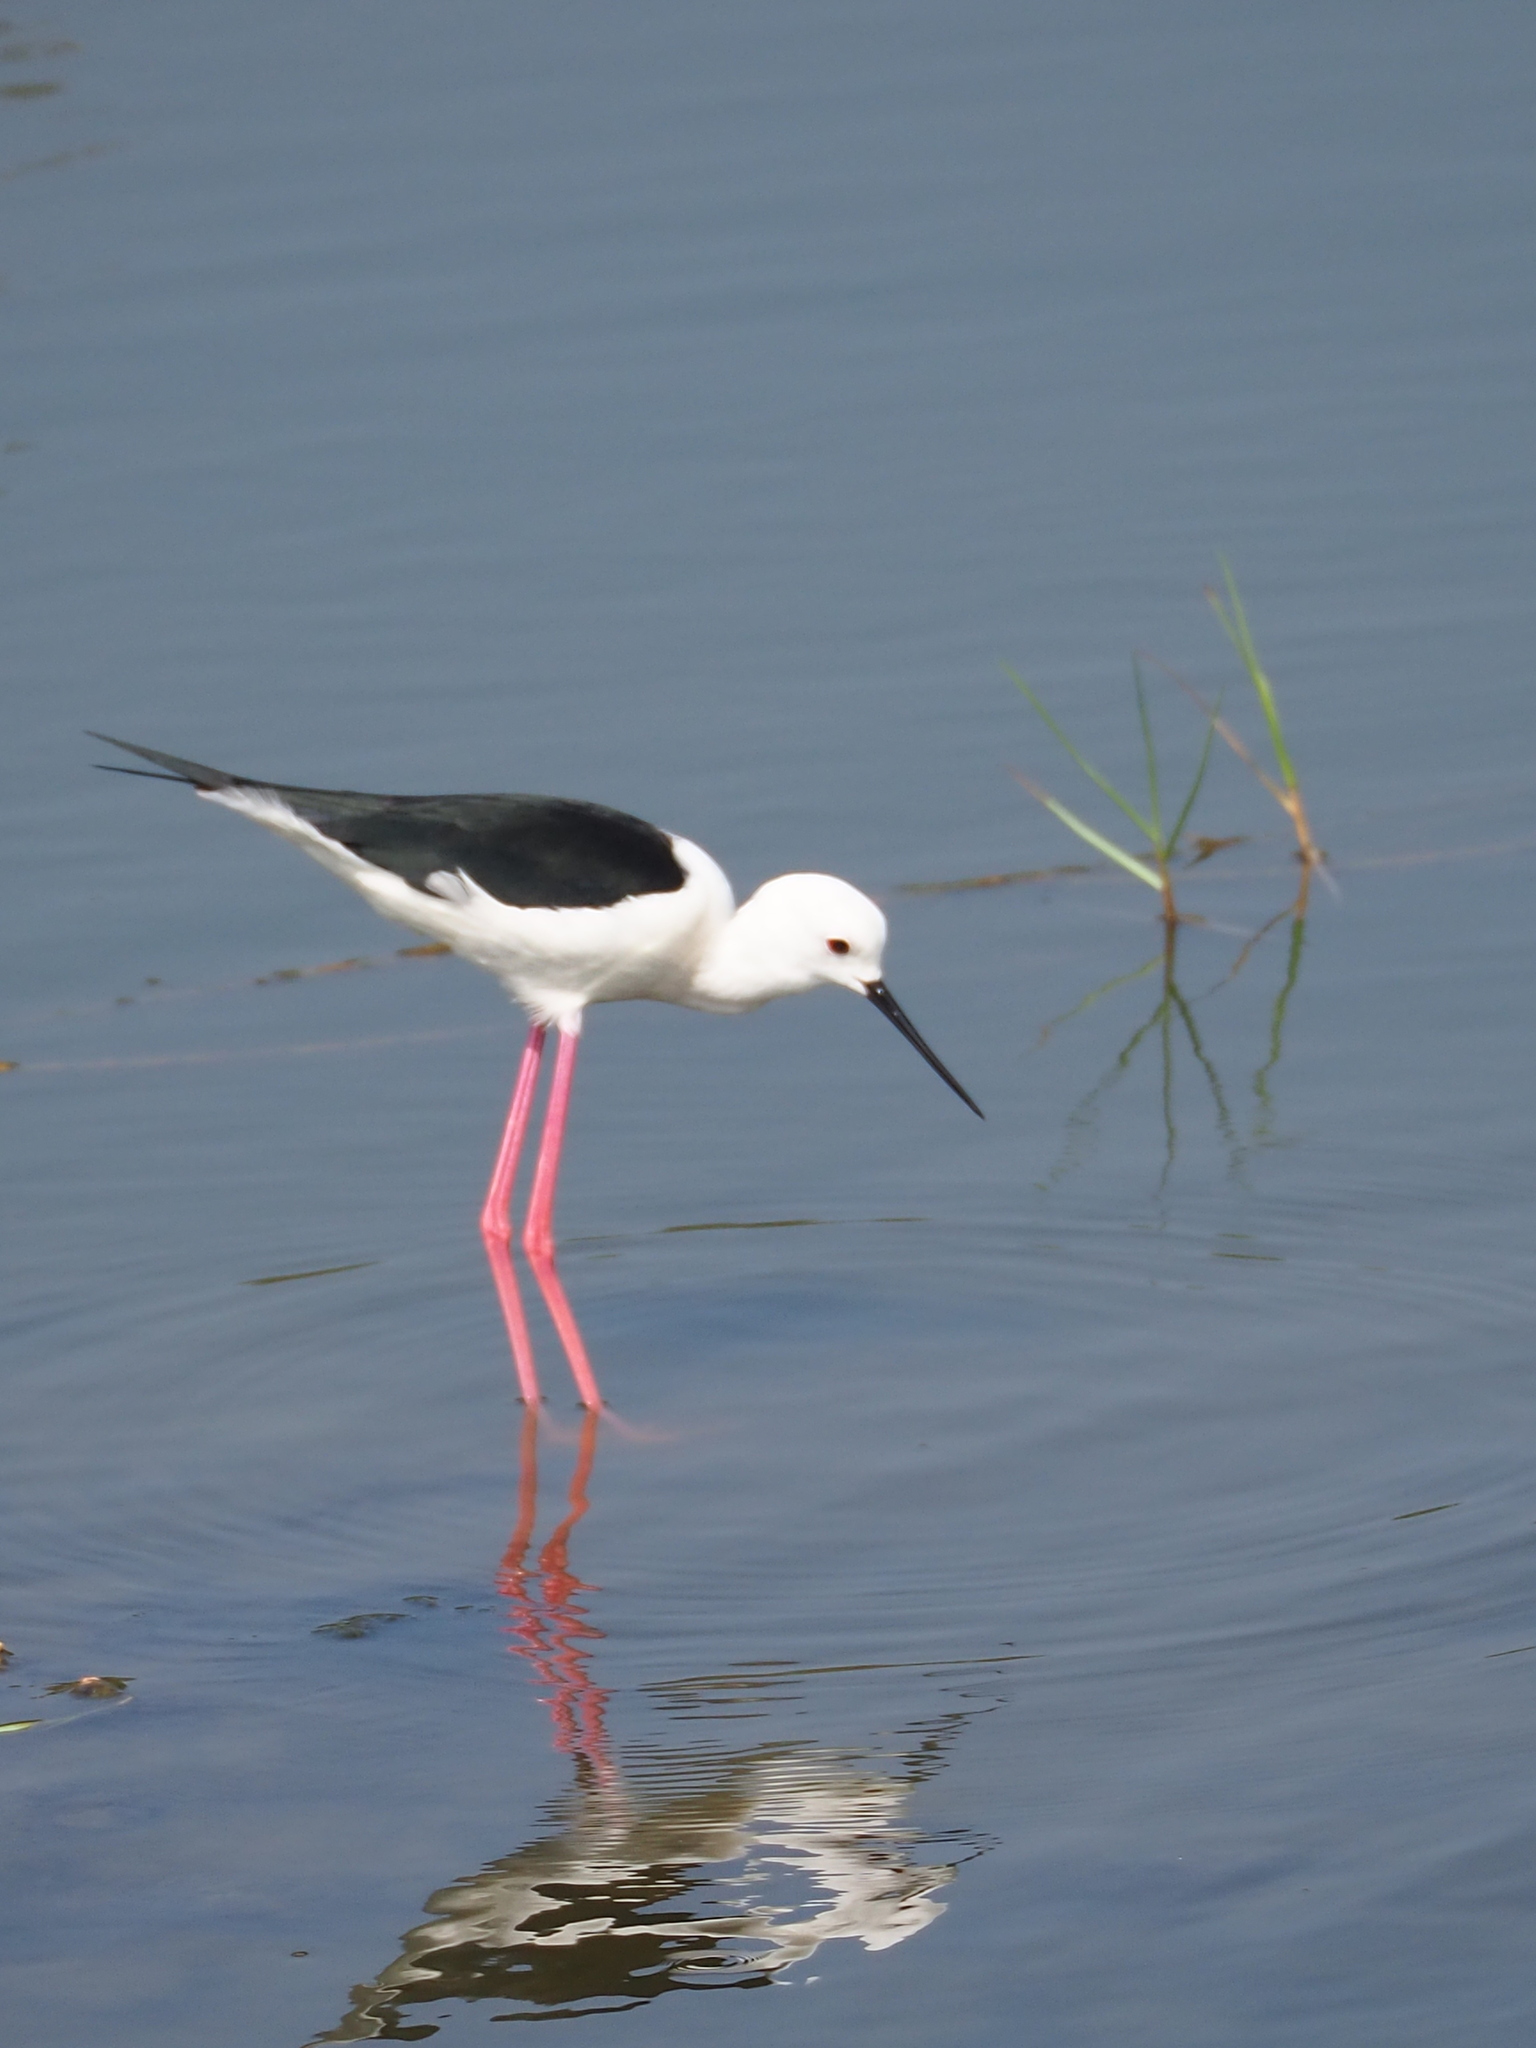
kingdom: Animalia
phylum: Chordata
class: Aves
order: Charadriiformes
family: Recurvirostridae
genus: Himantopus
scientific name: Himantopus himantopus
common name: Black-winged stilt
